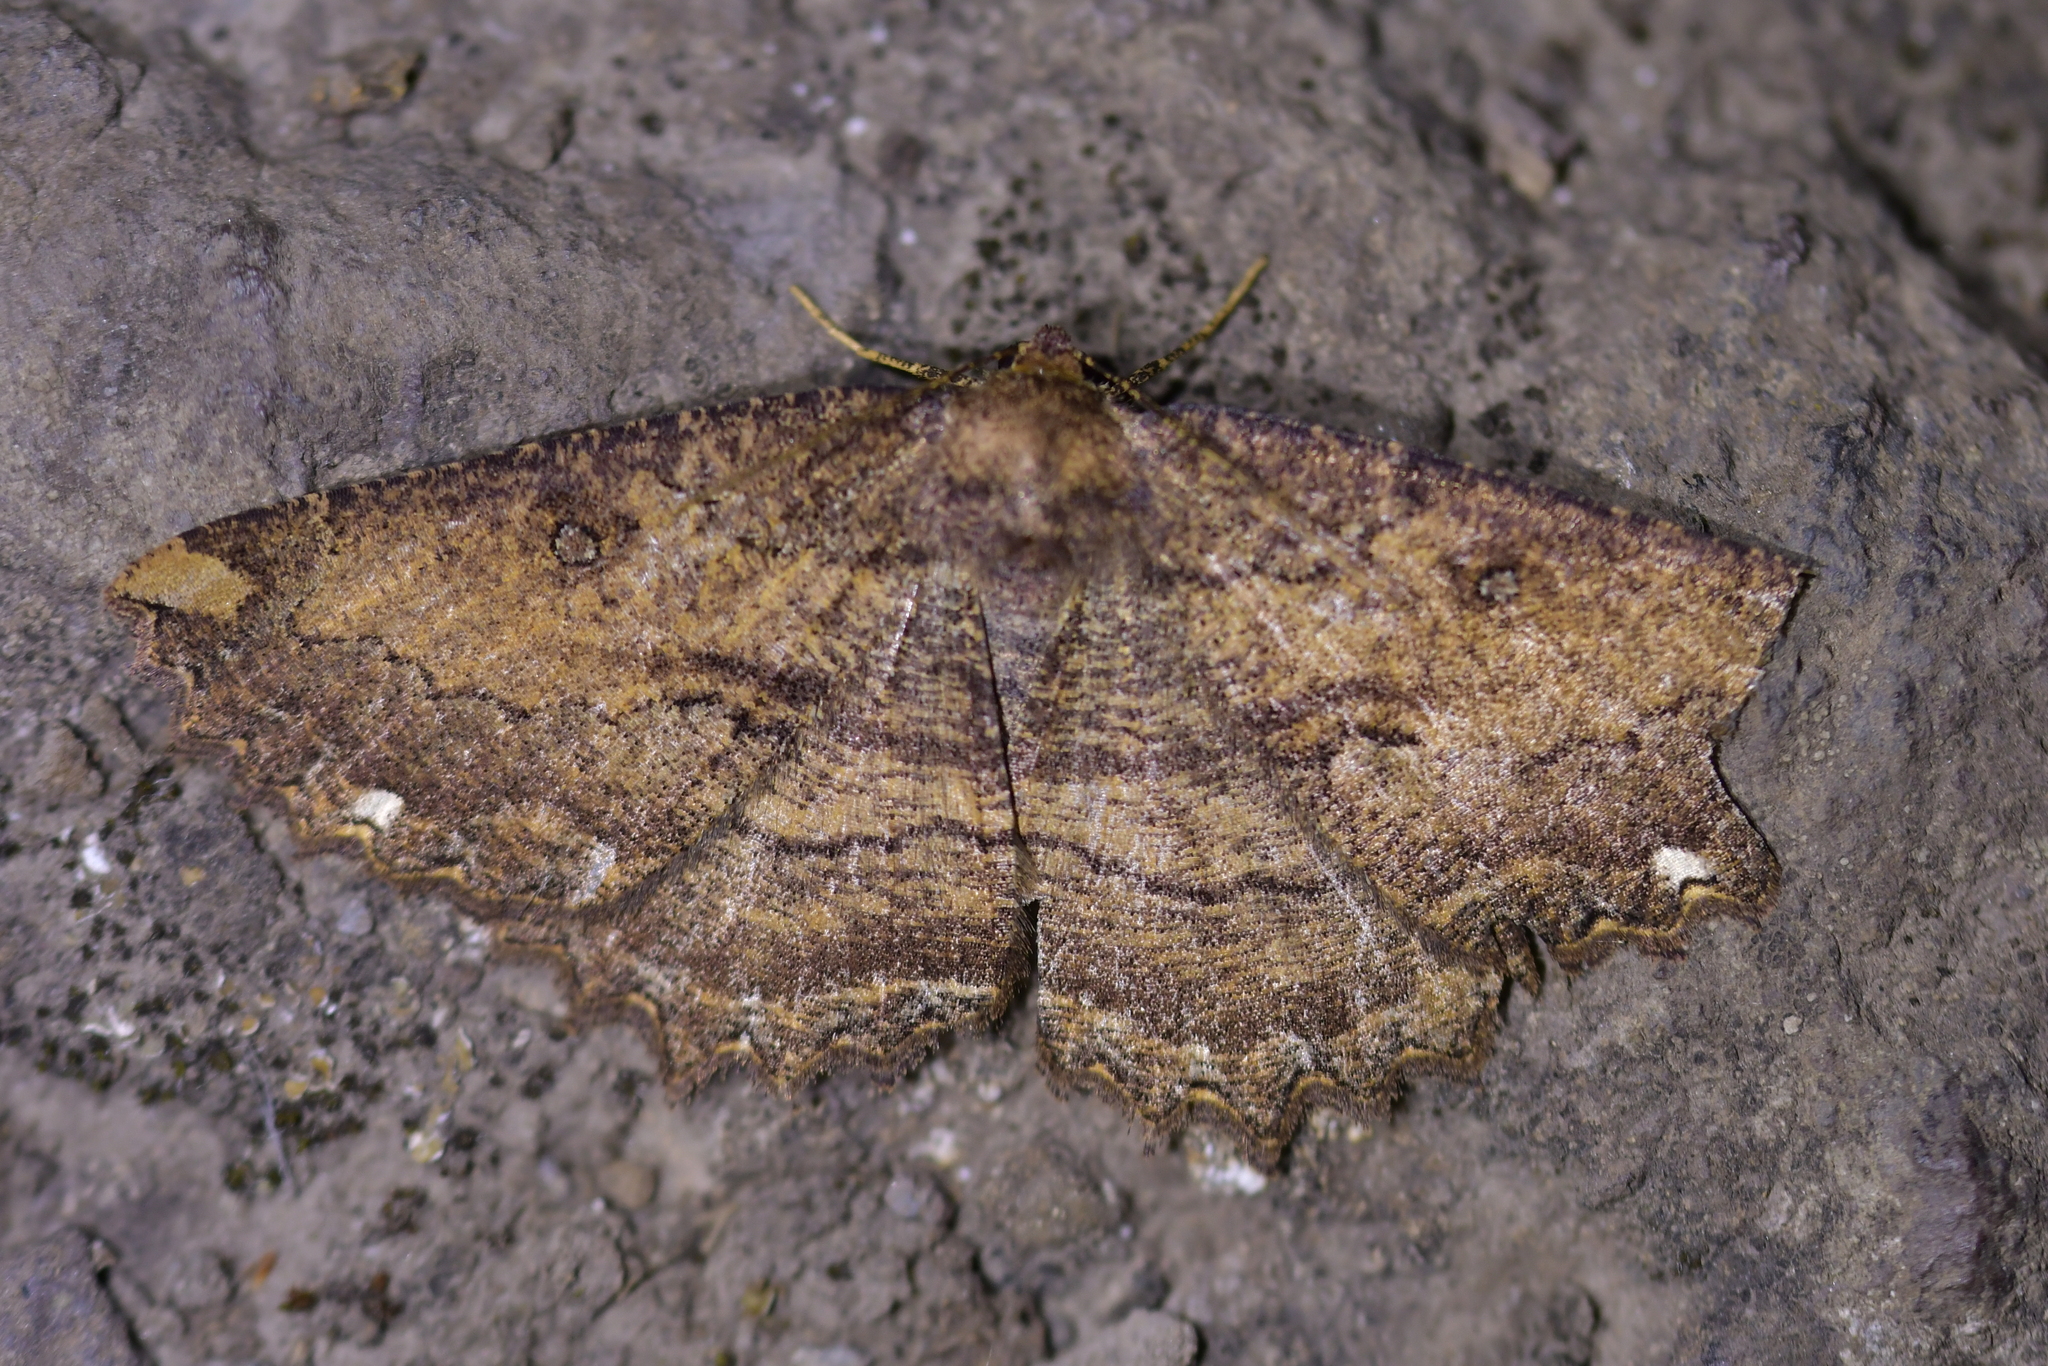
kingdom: Animalia
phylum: Arthropoda
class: Insecta
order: Lepidoptera
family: Geometridae
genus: Gellonia
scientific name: Gellonia dejectaria
